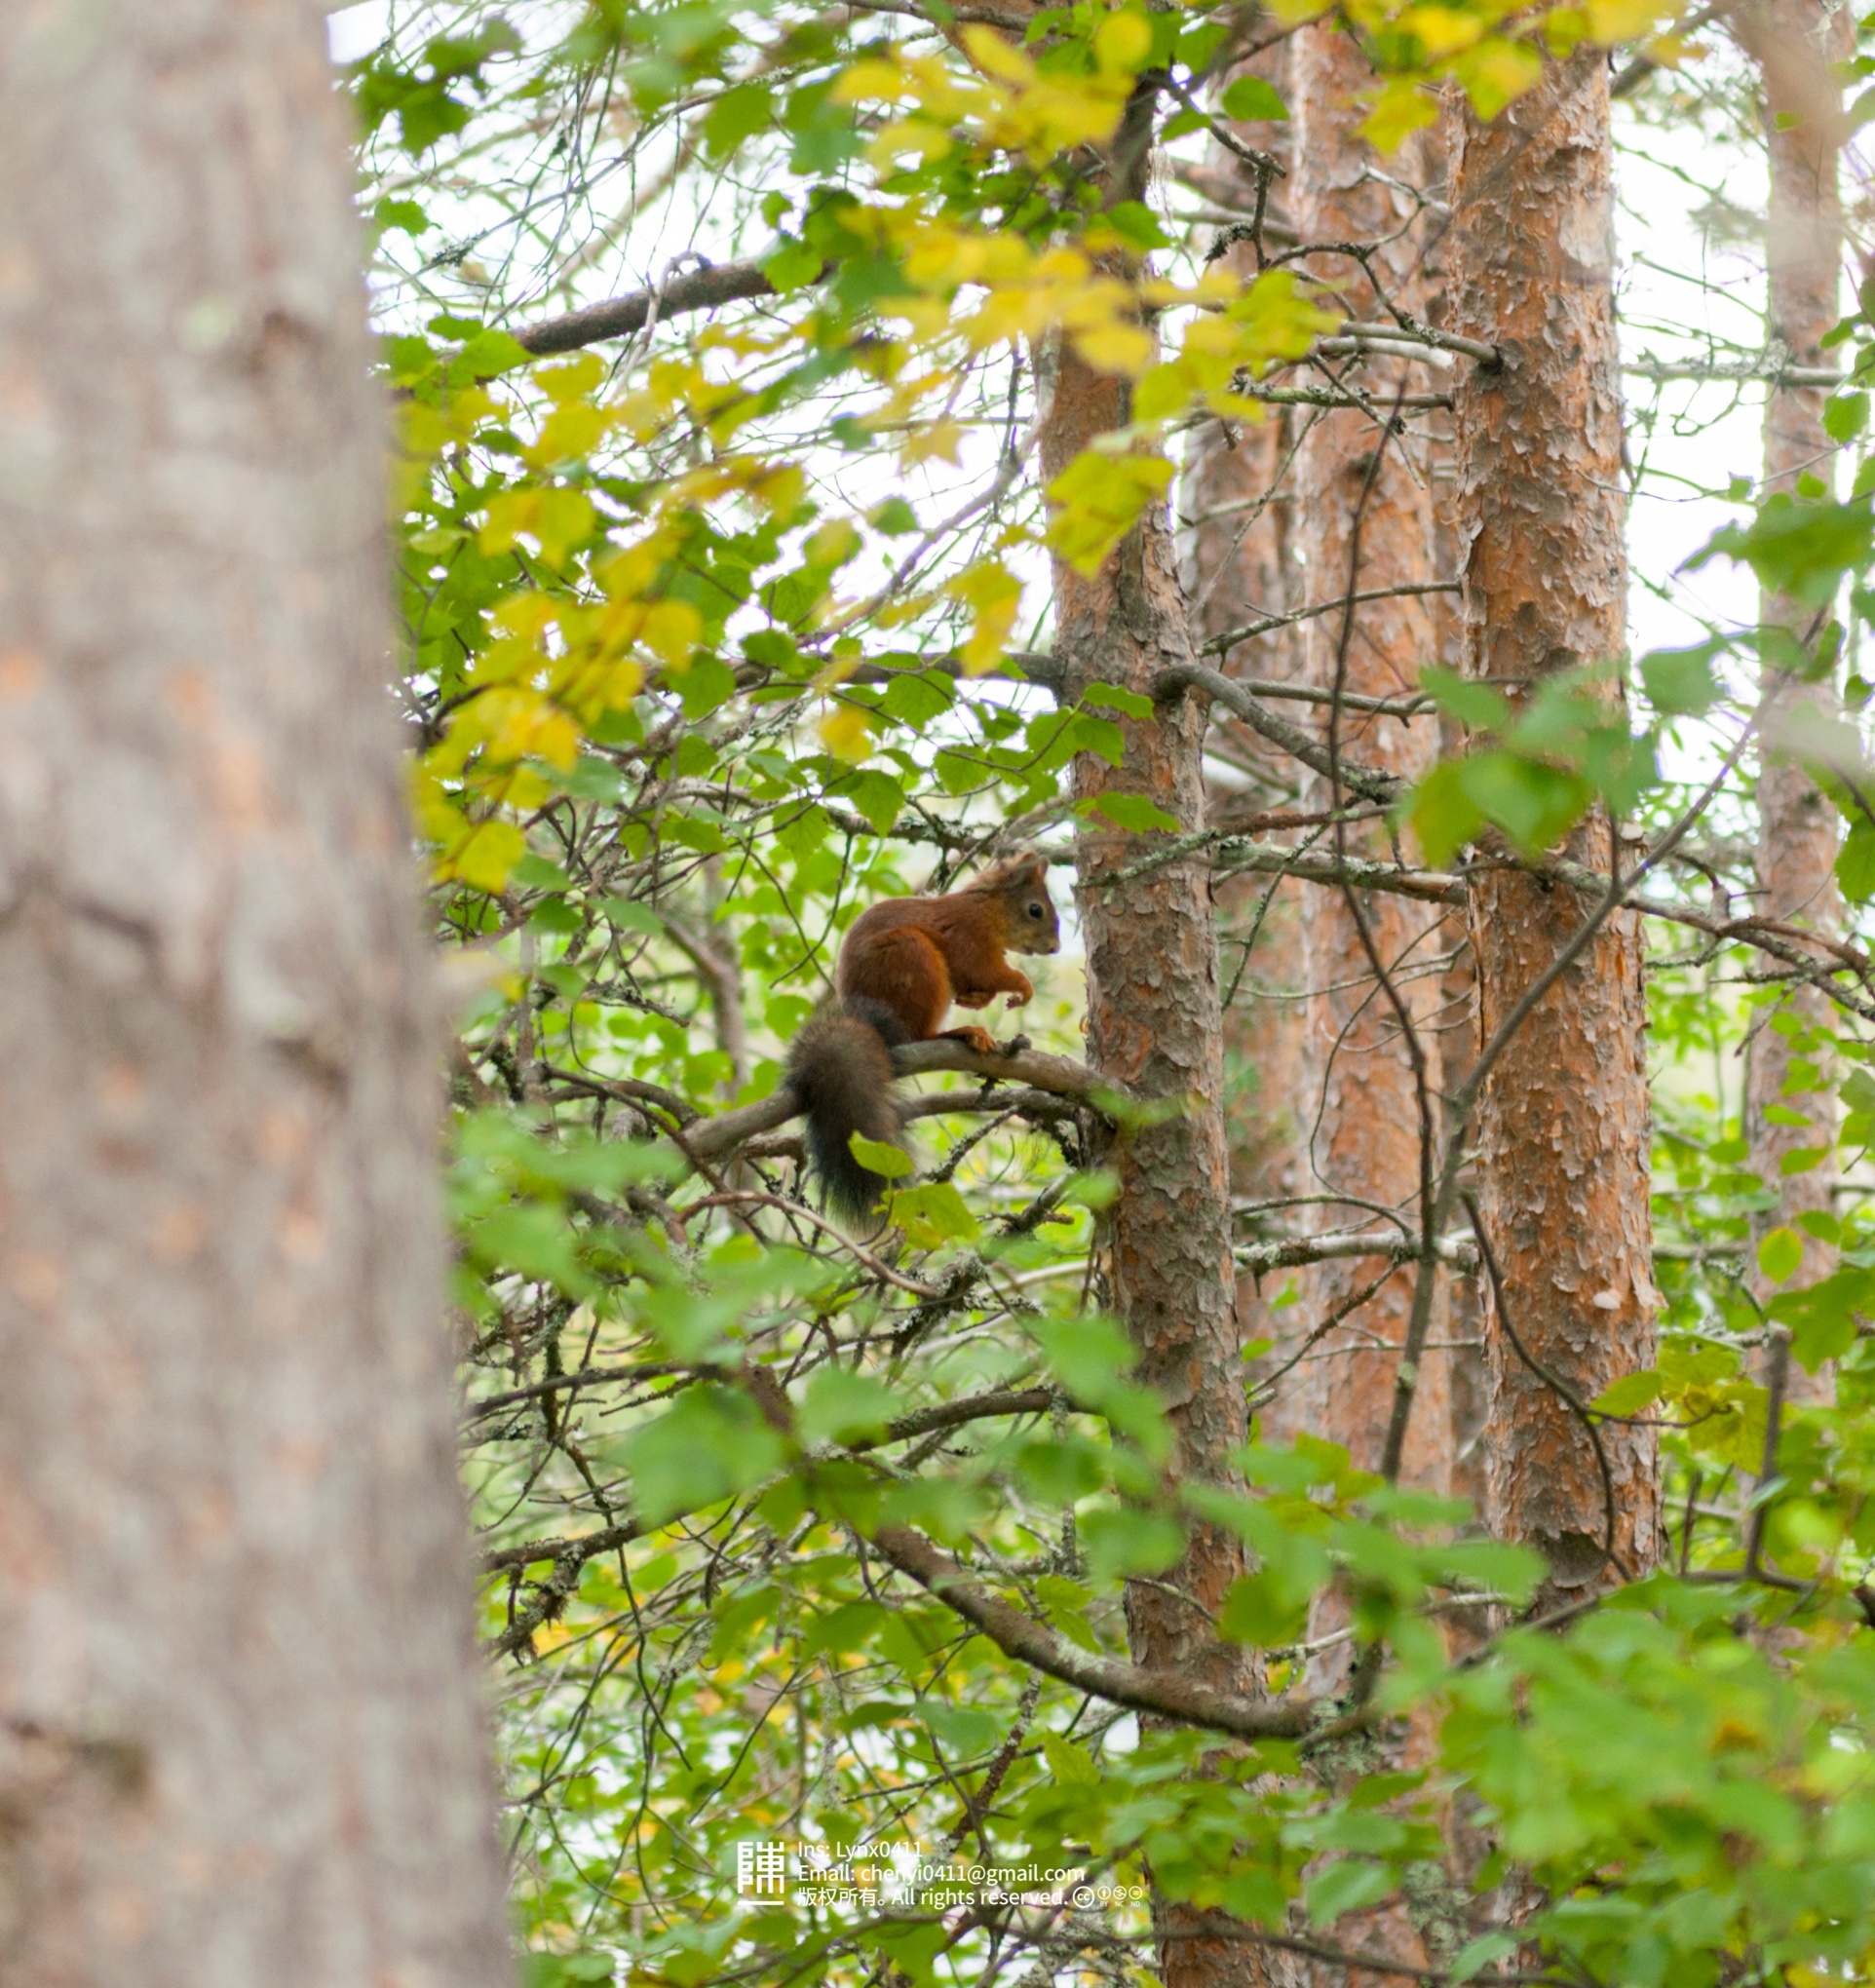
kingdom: Animalia
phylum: Chordata
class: Mammalia
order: Rodentia
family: Sciuridae
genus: Sciurus
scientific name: Sciurus vulgaris
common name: Eurasian red squirrel
